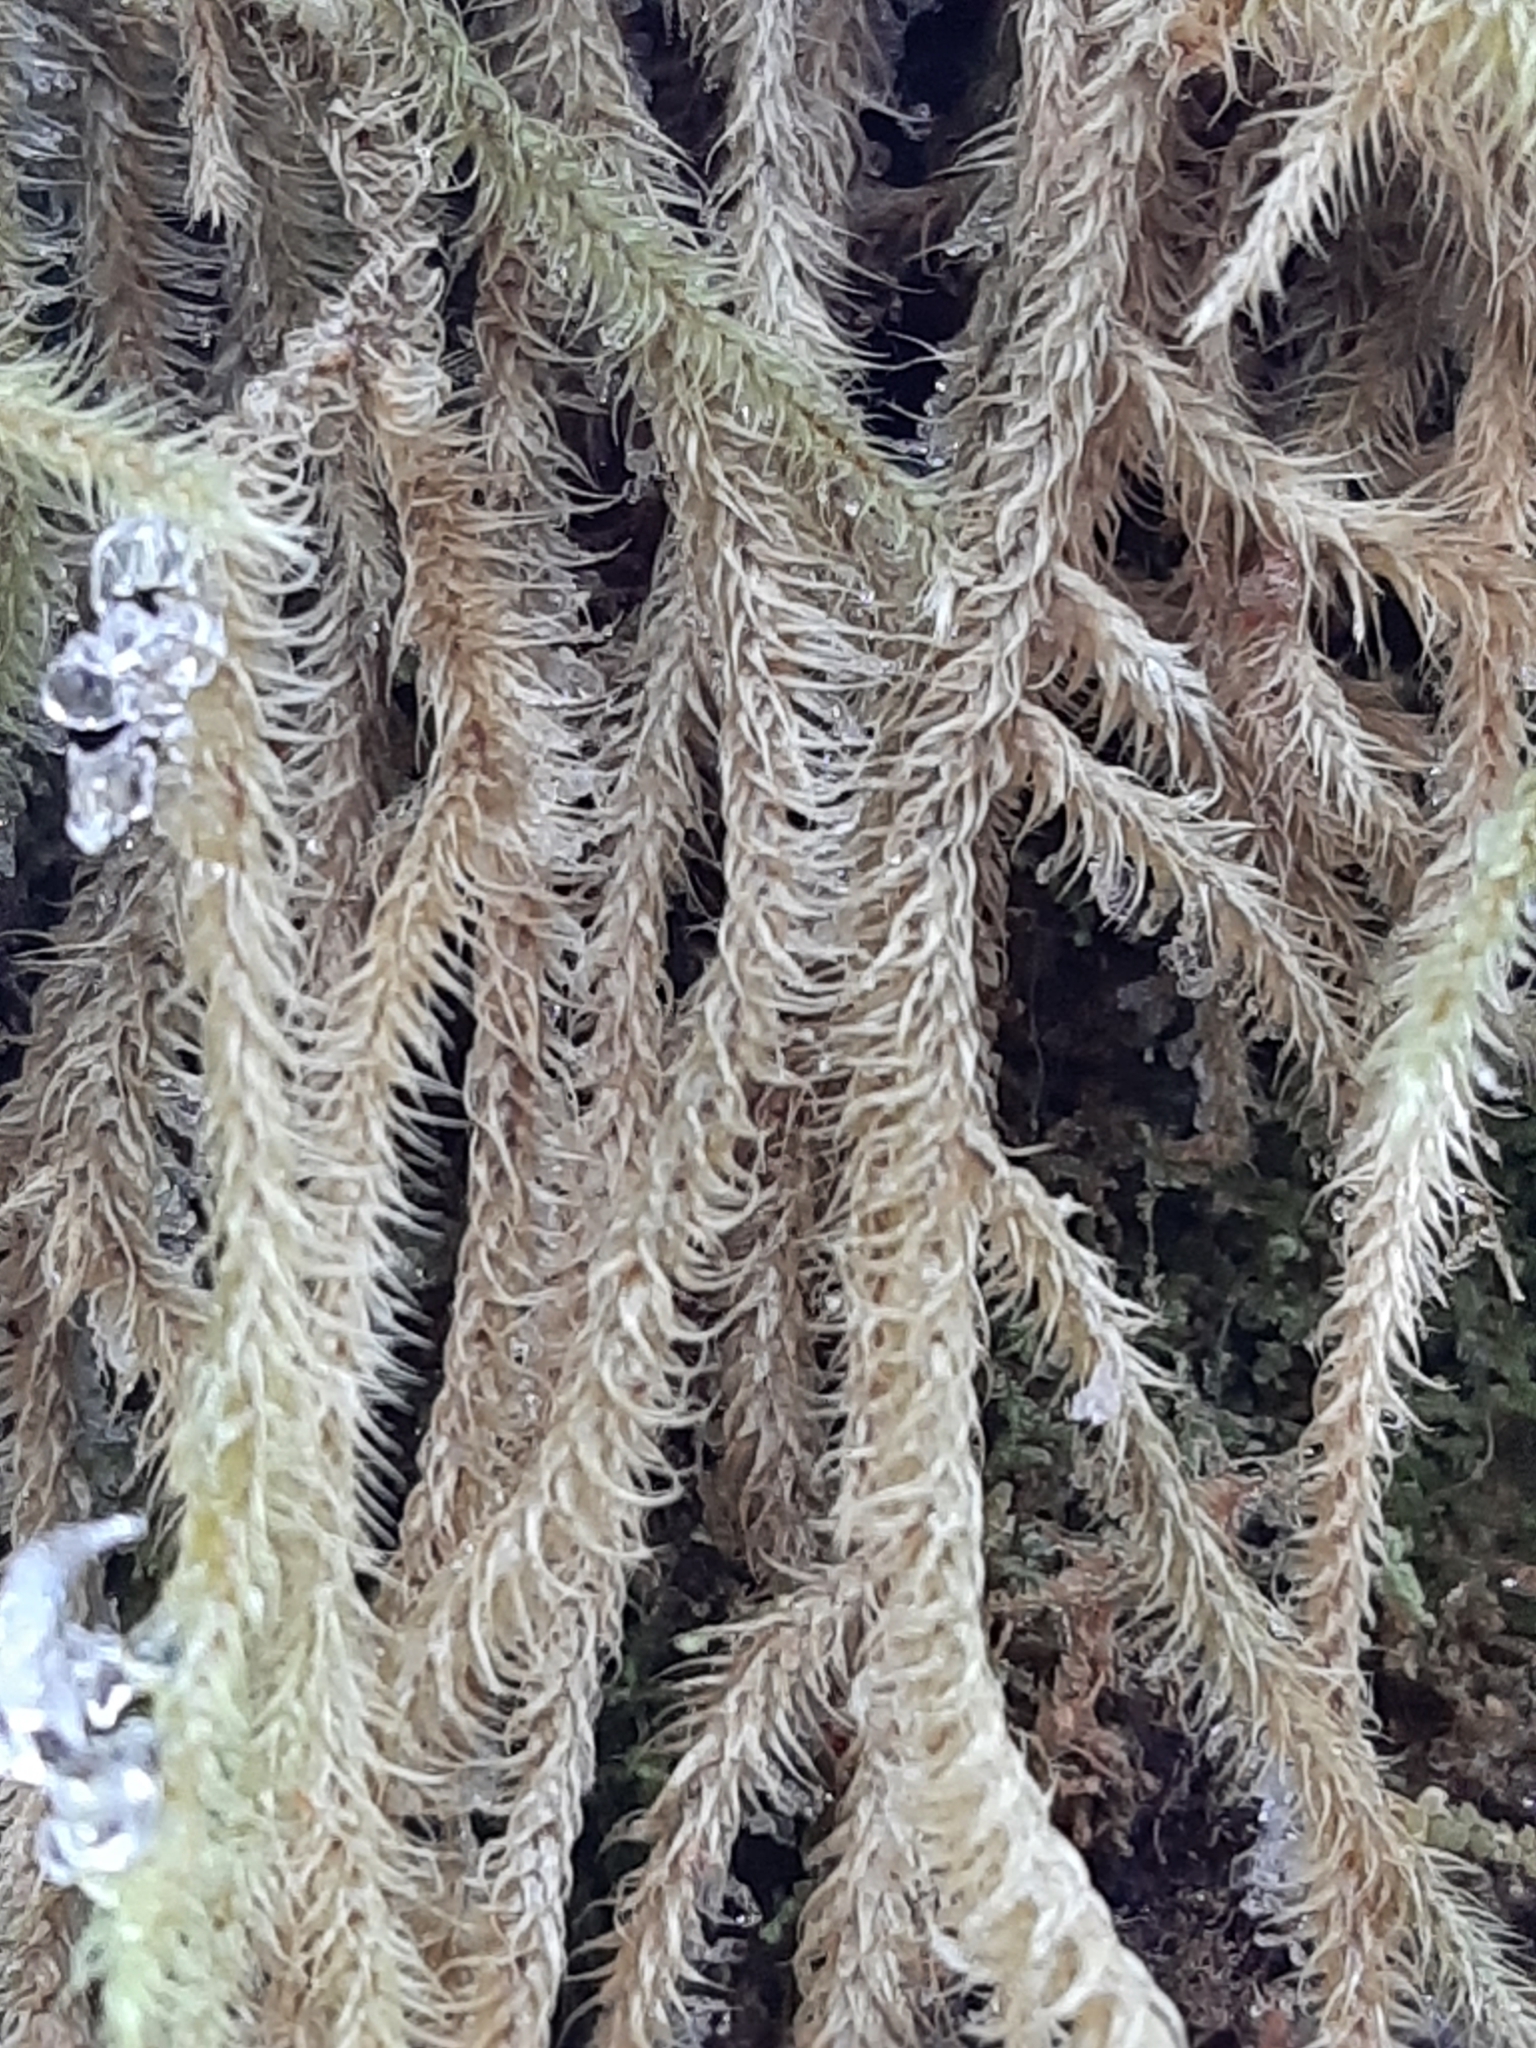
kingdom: Plantae
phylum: Bryophyta
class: Bryopsida
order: Hypnales
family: Hylocomiaceae
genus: Rhytidiadelphus
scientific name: Rhytidiadelphus loreus
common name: Lanky moss
